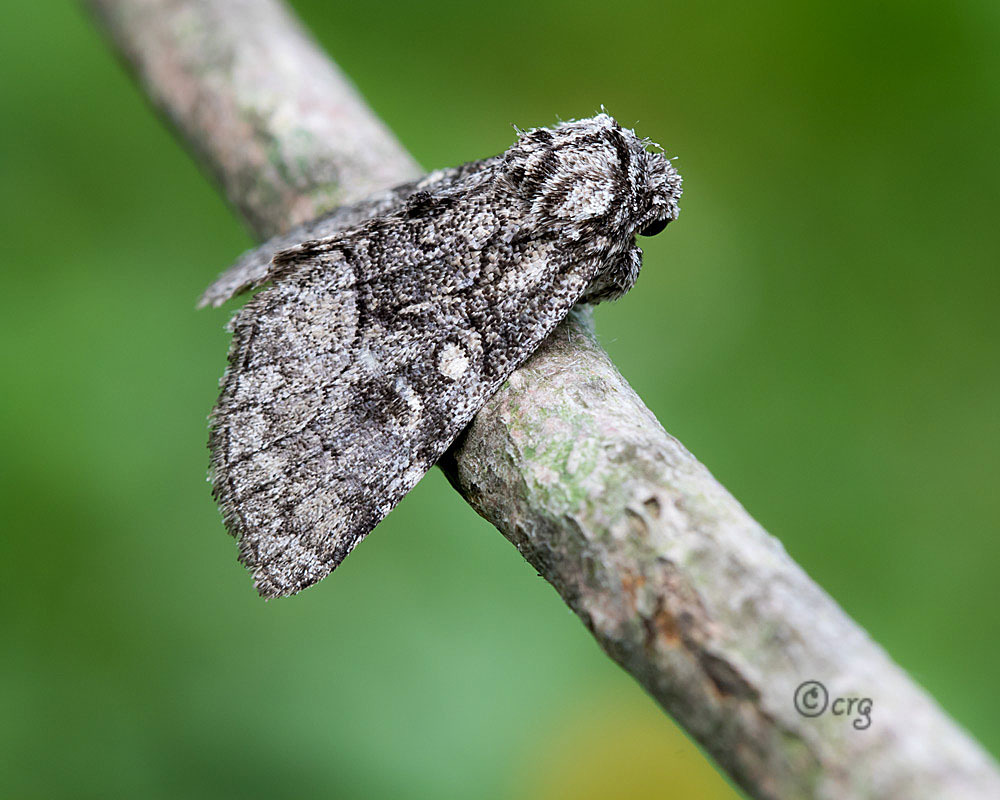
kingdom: Animalia
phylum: Arthropoda
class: Insecta
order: Lepidoptera
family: Noctuidae
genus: Raphia
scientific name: Raphia frater
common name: Brother
